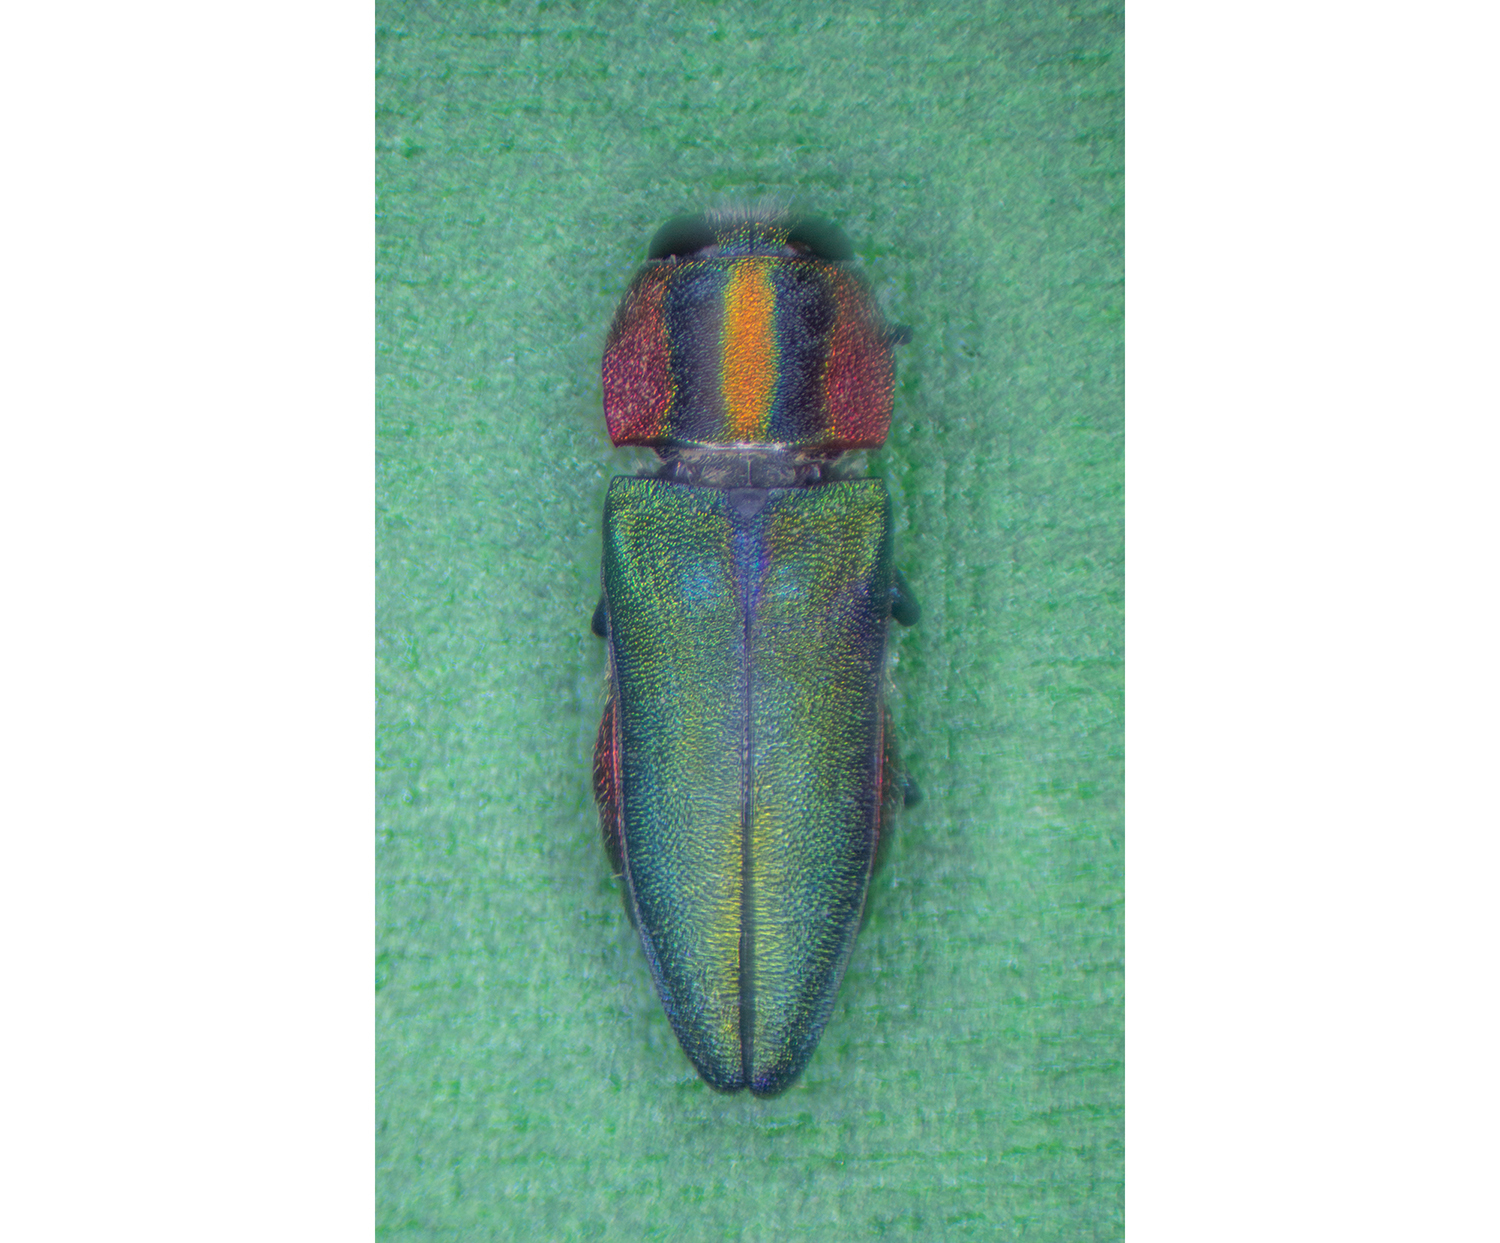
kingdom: Animalia
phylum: Arthropoda
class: Insecta
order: Coleoptera
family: Buprestidae
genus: Anthaxia
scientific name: Anthaxia eugeniae
